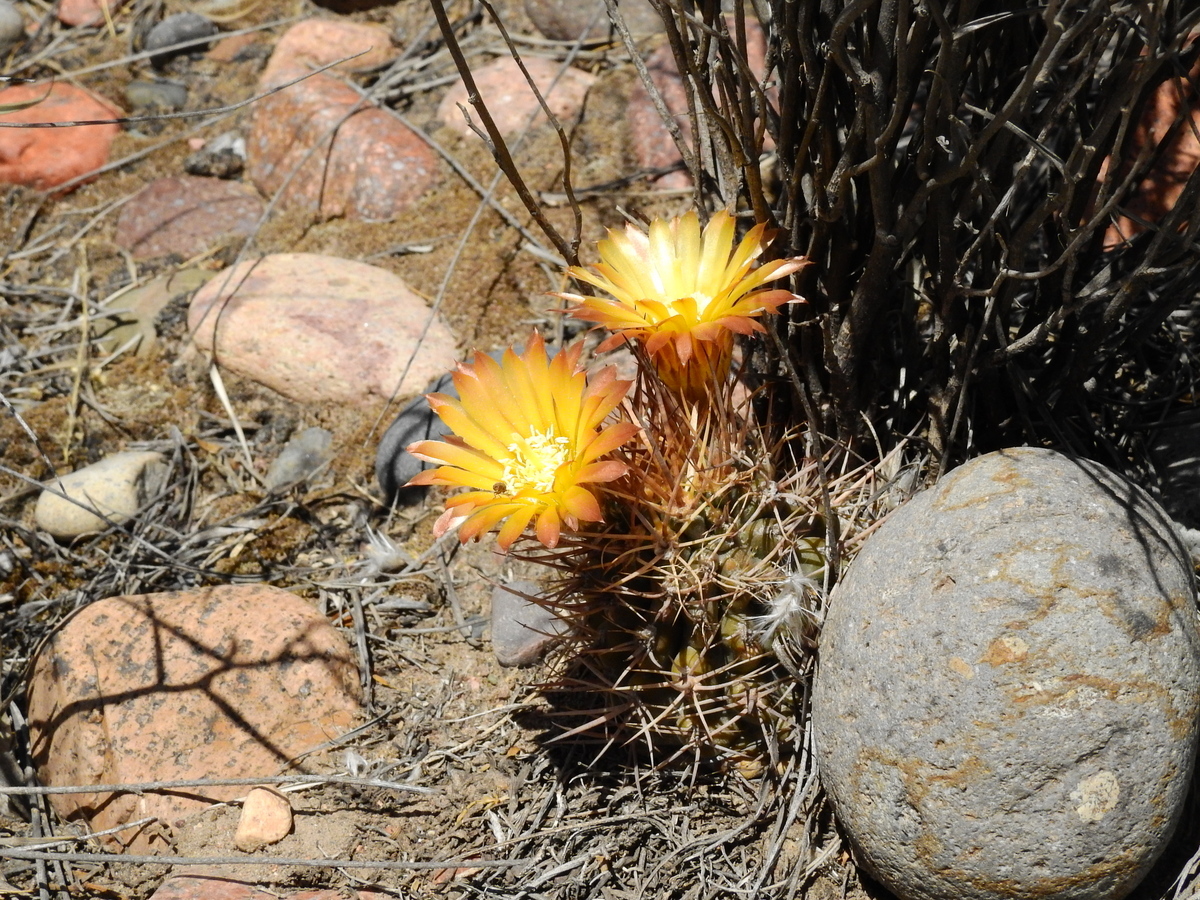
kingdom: Plantae
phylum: Tracheophyta
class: Magnoliopsida
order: Caryophyllales
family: Cactaceae
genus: Eriosyce
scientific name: Eriosyce strausiana
